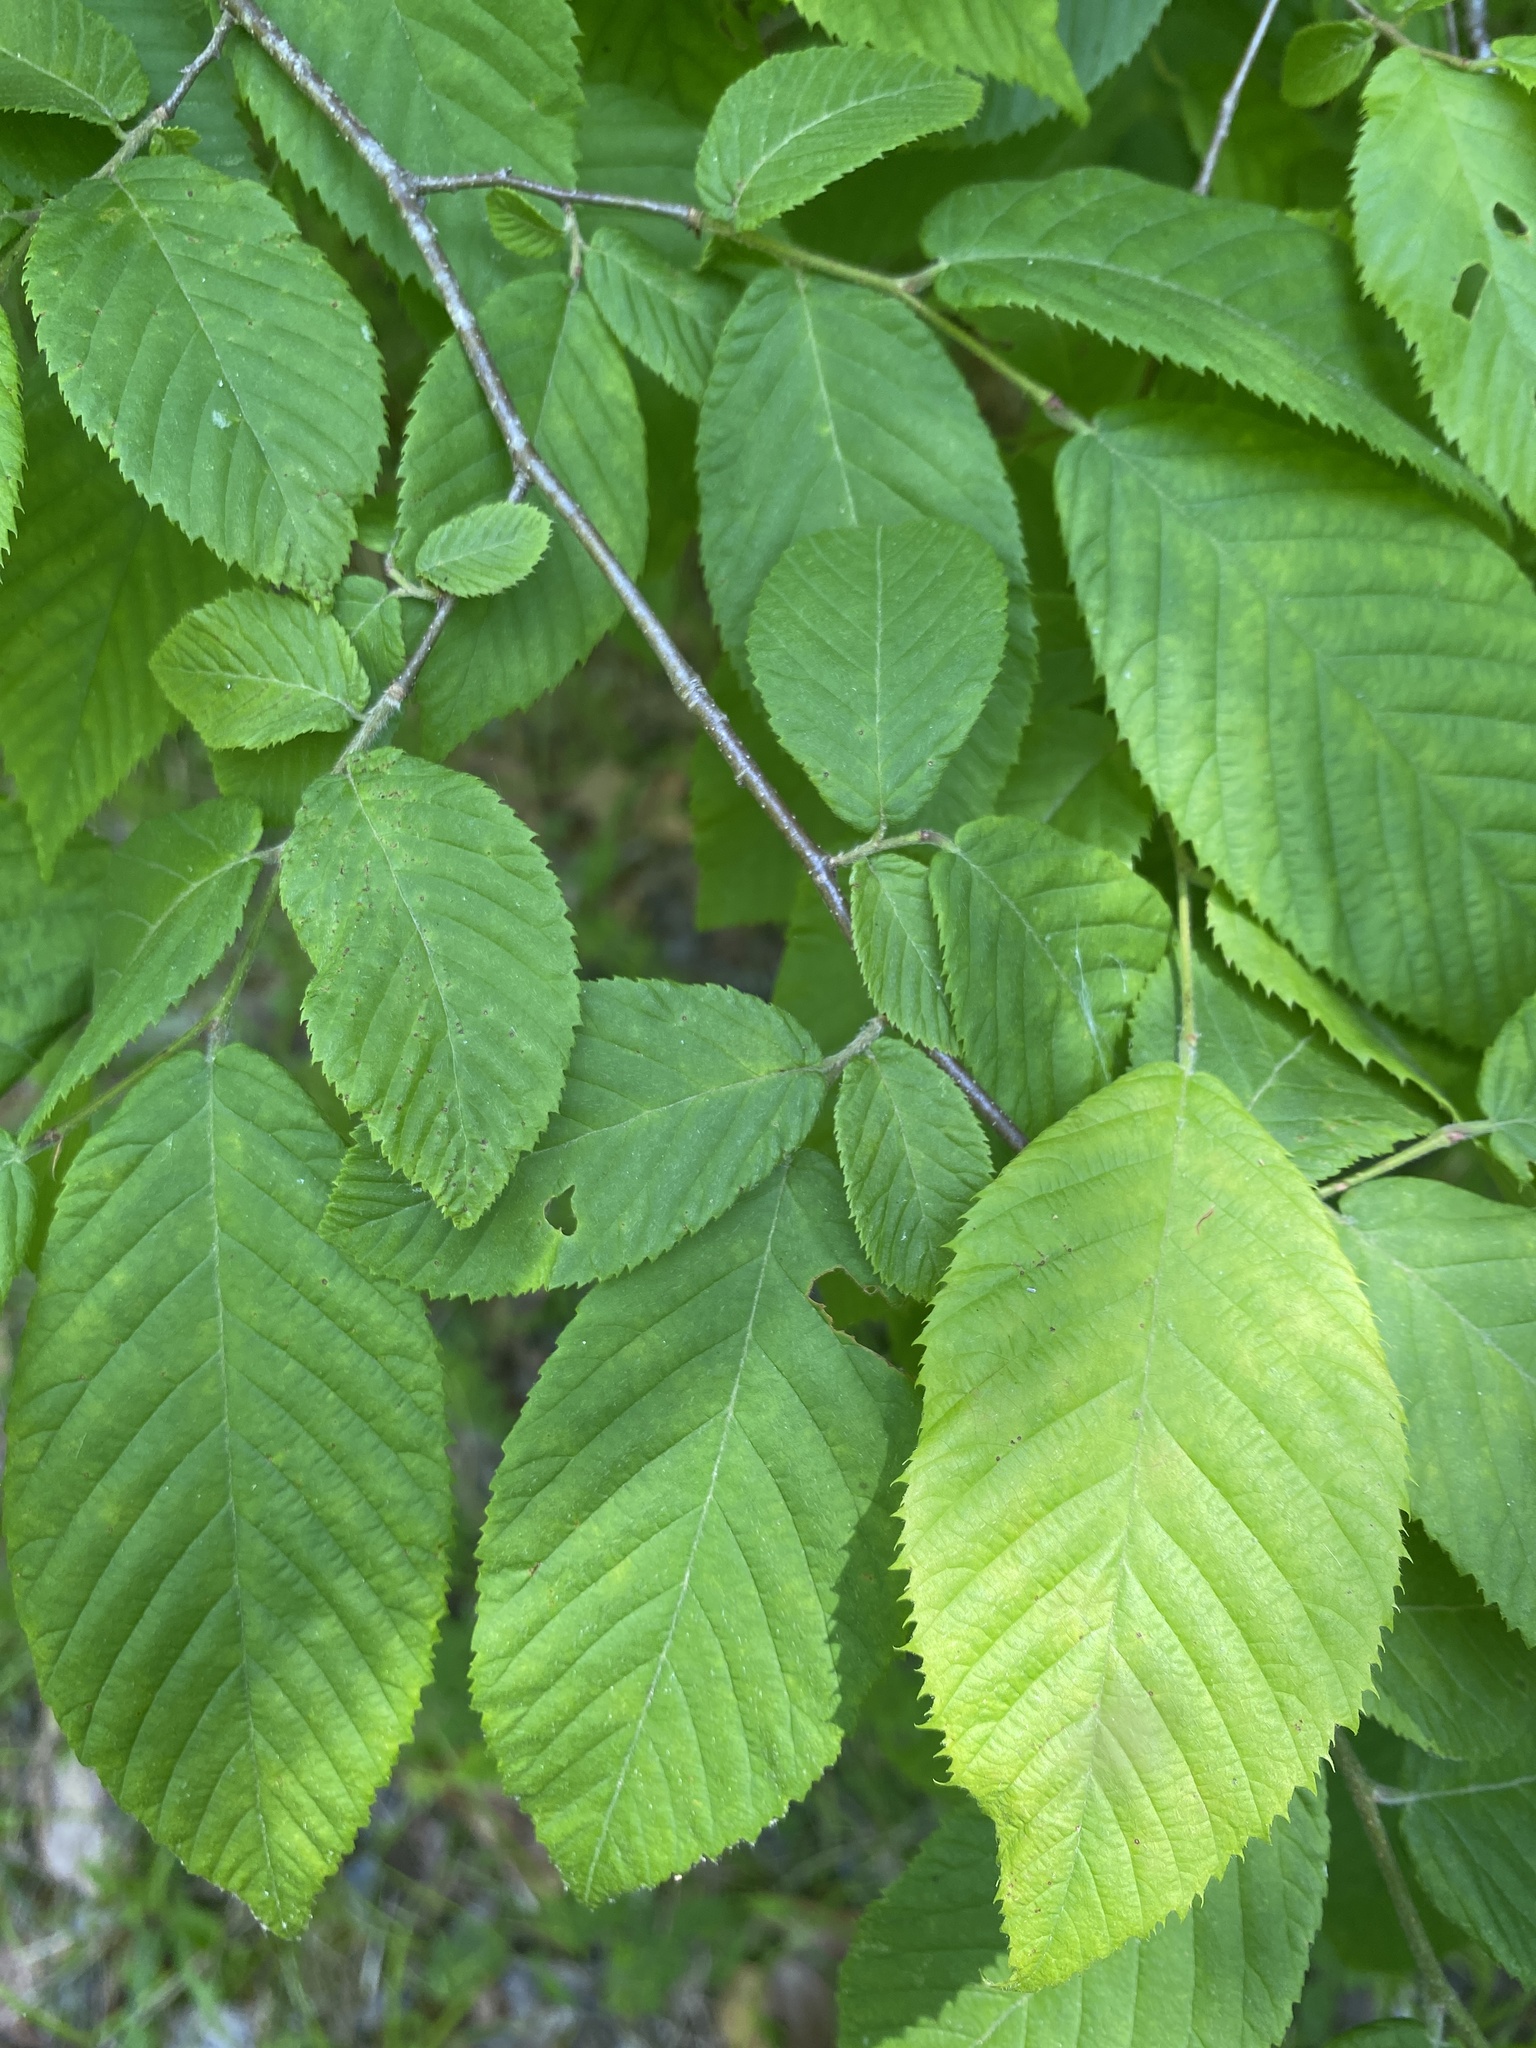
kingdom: Plantae
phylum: Tracheophyta
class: Magnoliopsida
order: Fagales
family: Betulaceae
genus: Ostrya
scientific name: Ostrya virginiana
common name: Ironwood
